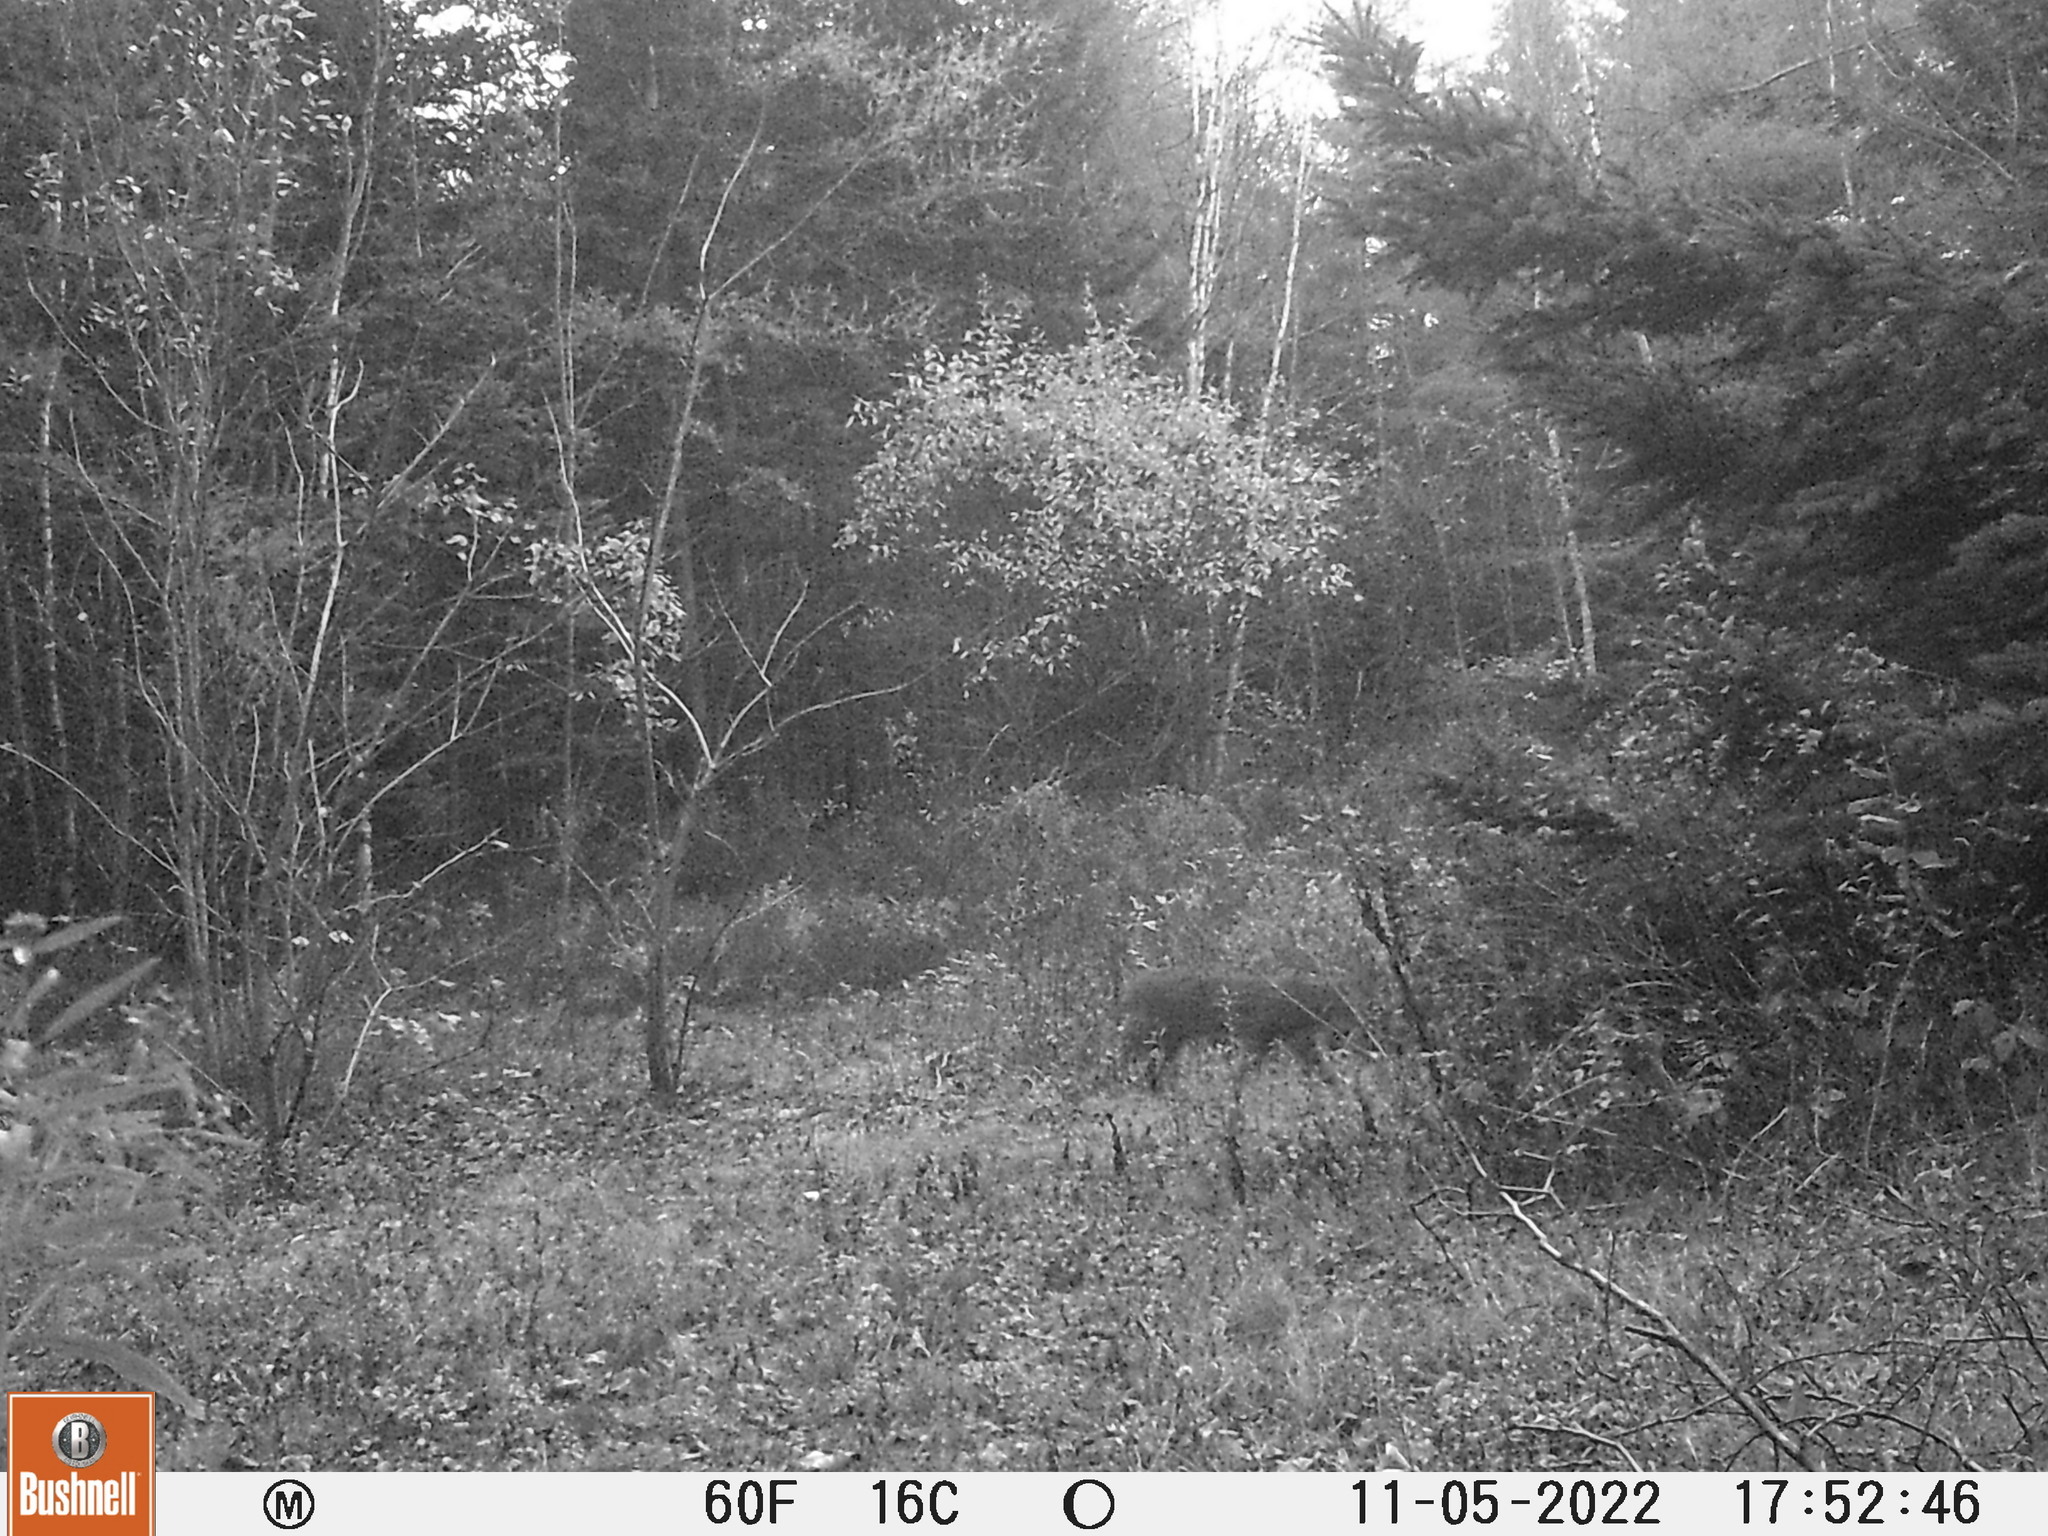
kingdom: Animalia
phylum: Chordata
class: Mammalia
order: Carnivora
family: Felidae
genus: Felis
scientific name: Felis catus
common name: Domestic cat
